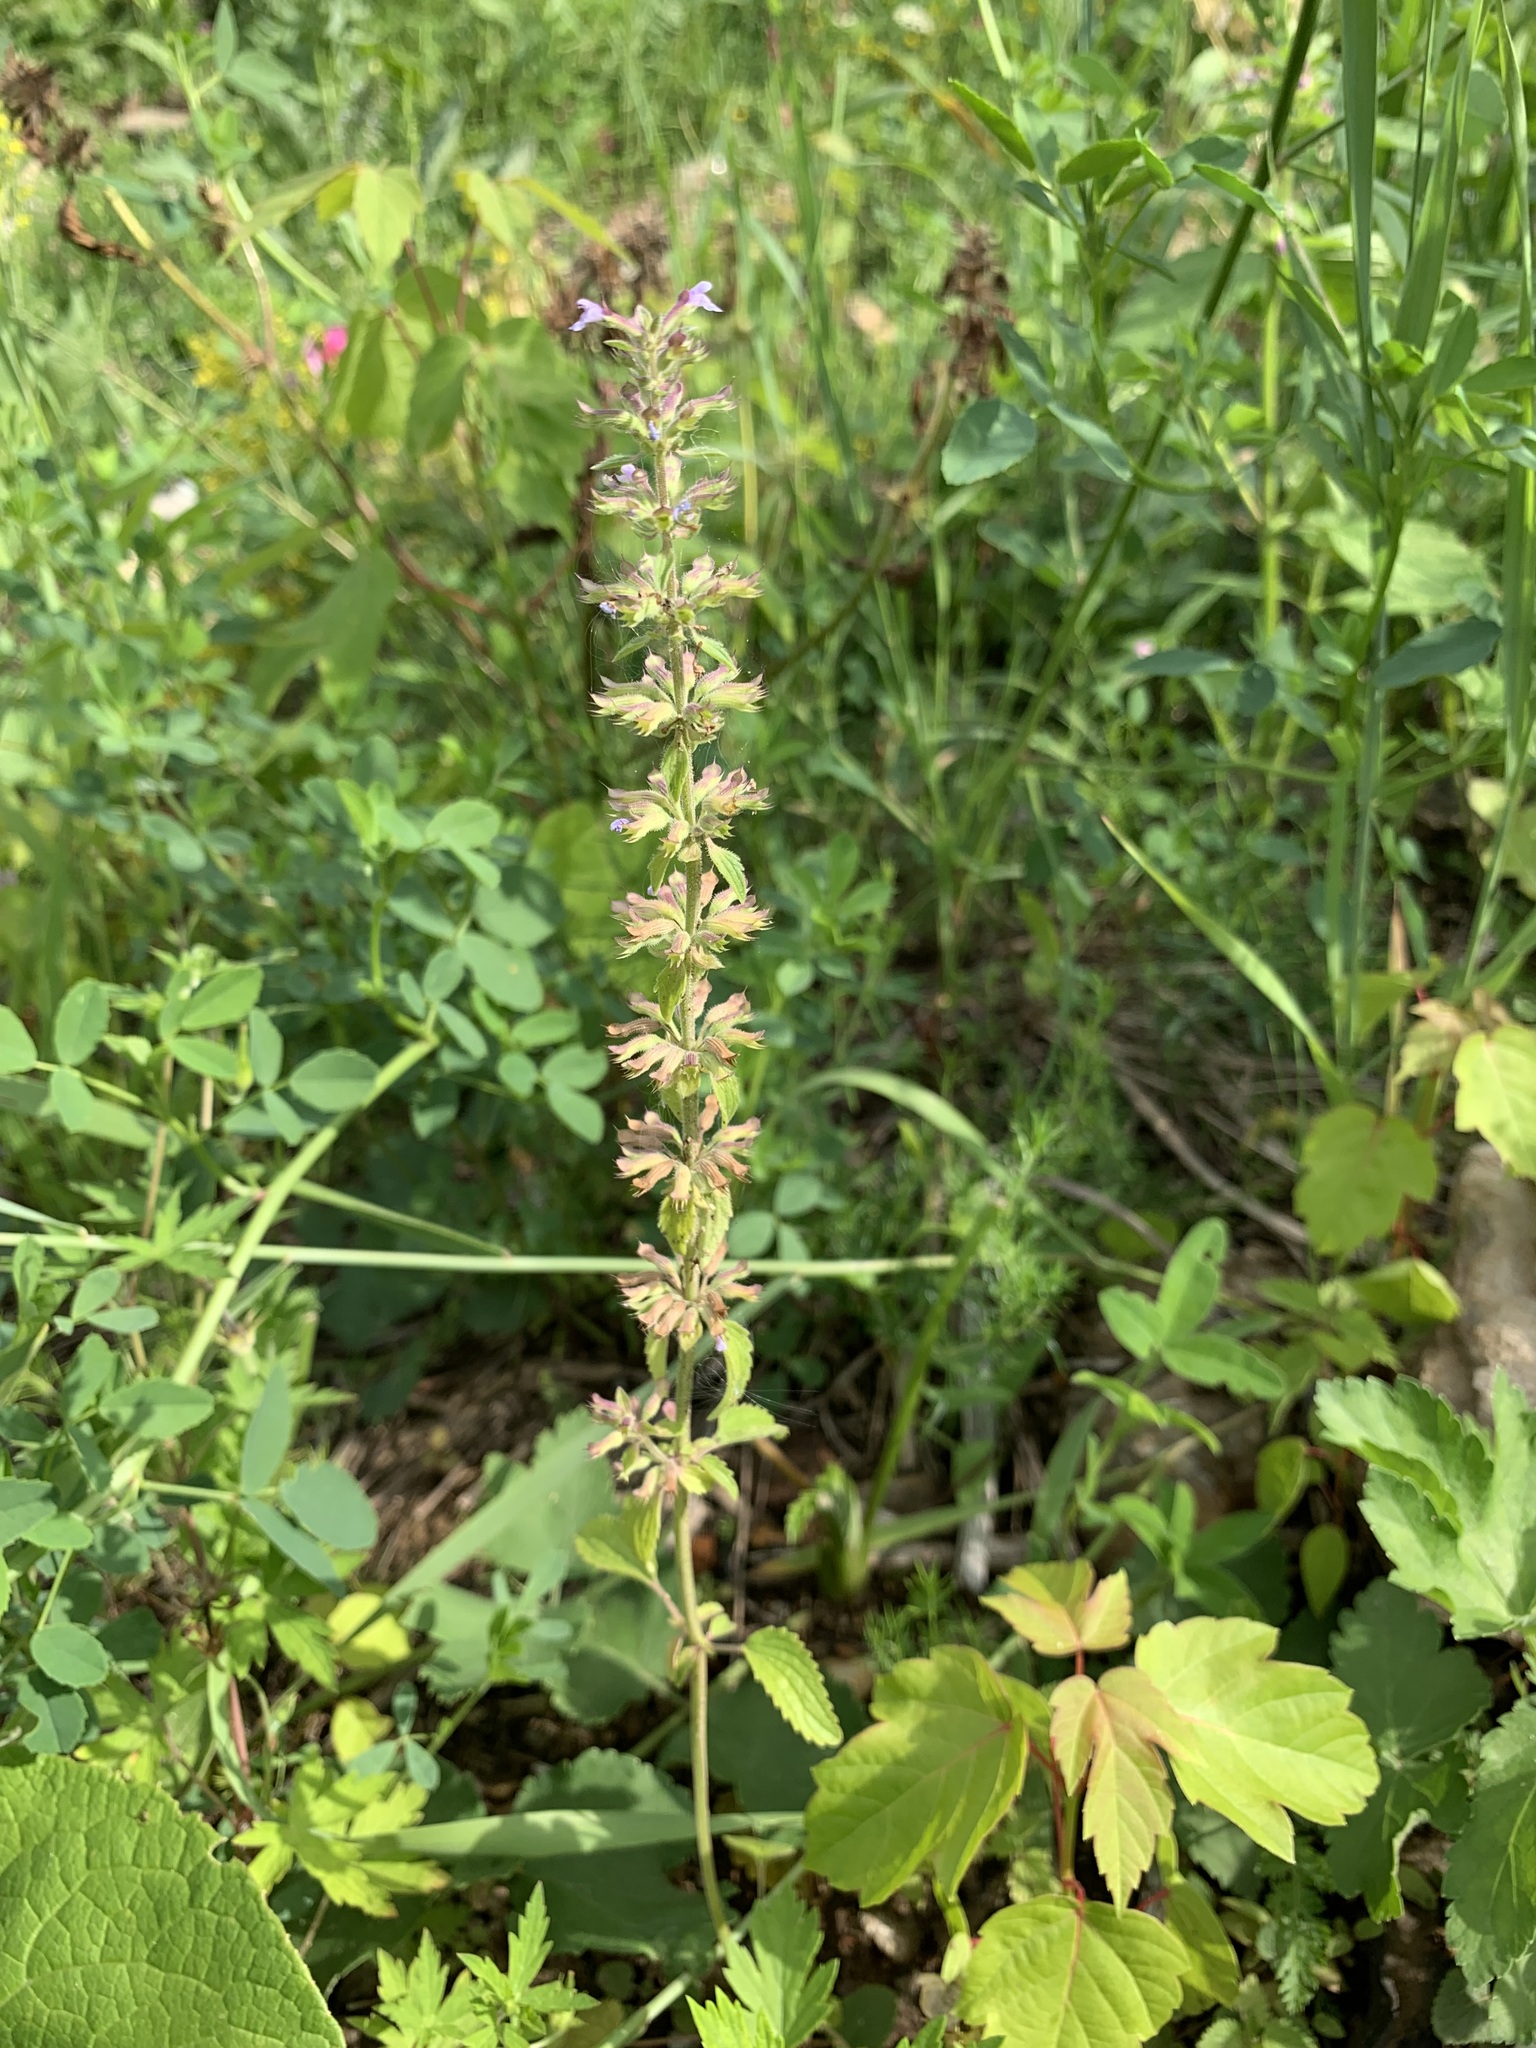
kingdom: Plantae
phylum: Tracheophyta
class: Magnoliopsida
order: Lamiales
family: Lamiaceae
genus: Dracocephalum
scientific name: Dracocephalum thymiflorum
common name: Thymeleaf dragonhead
